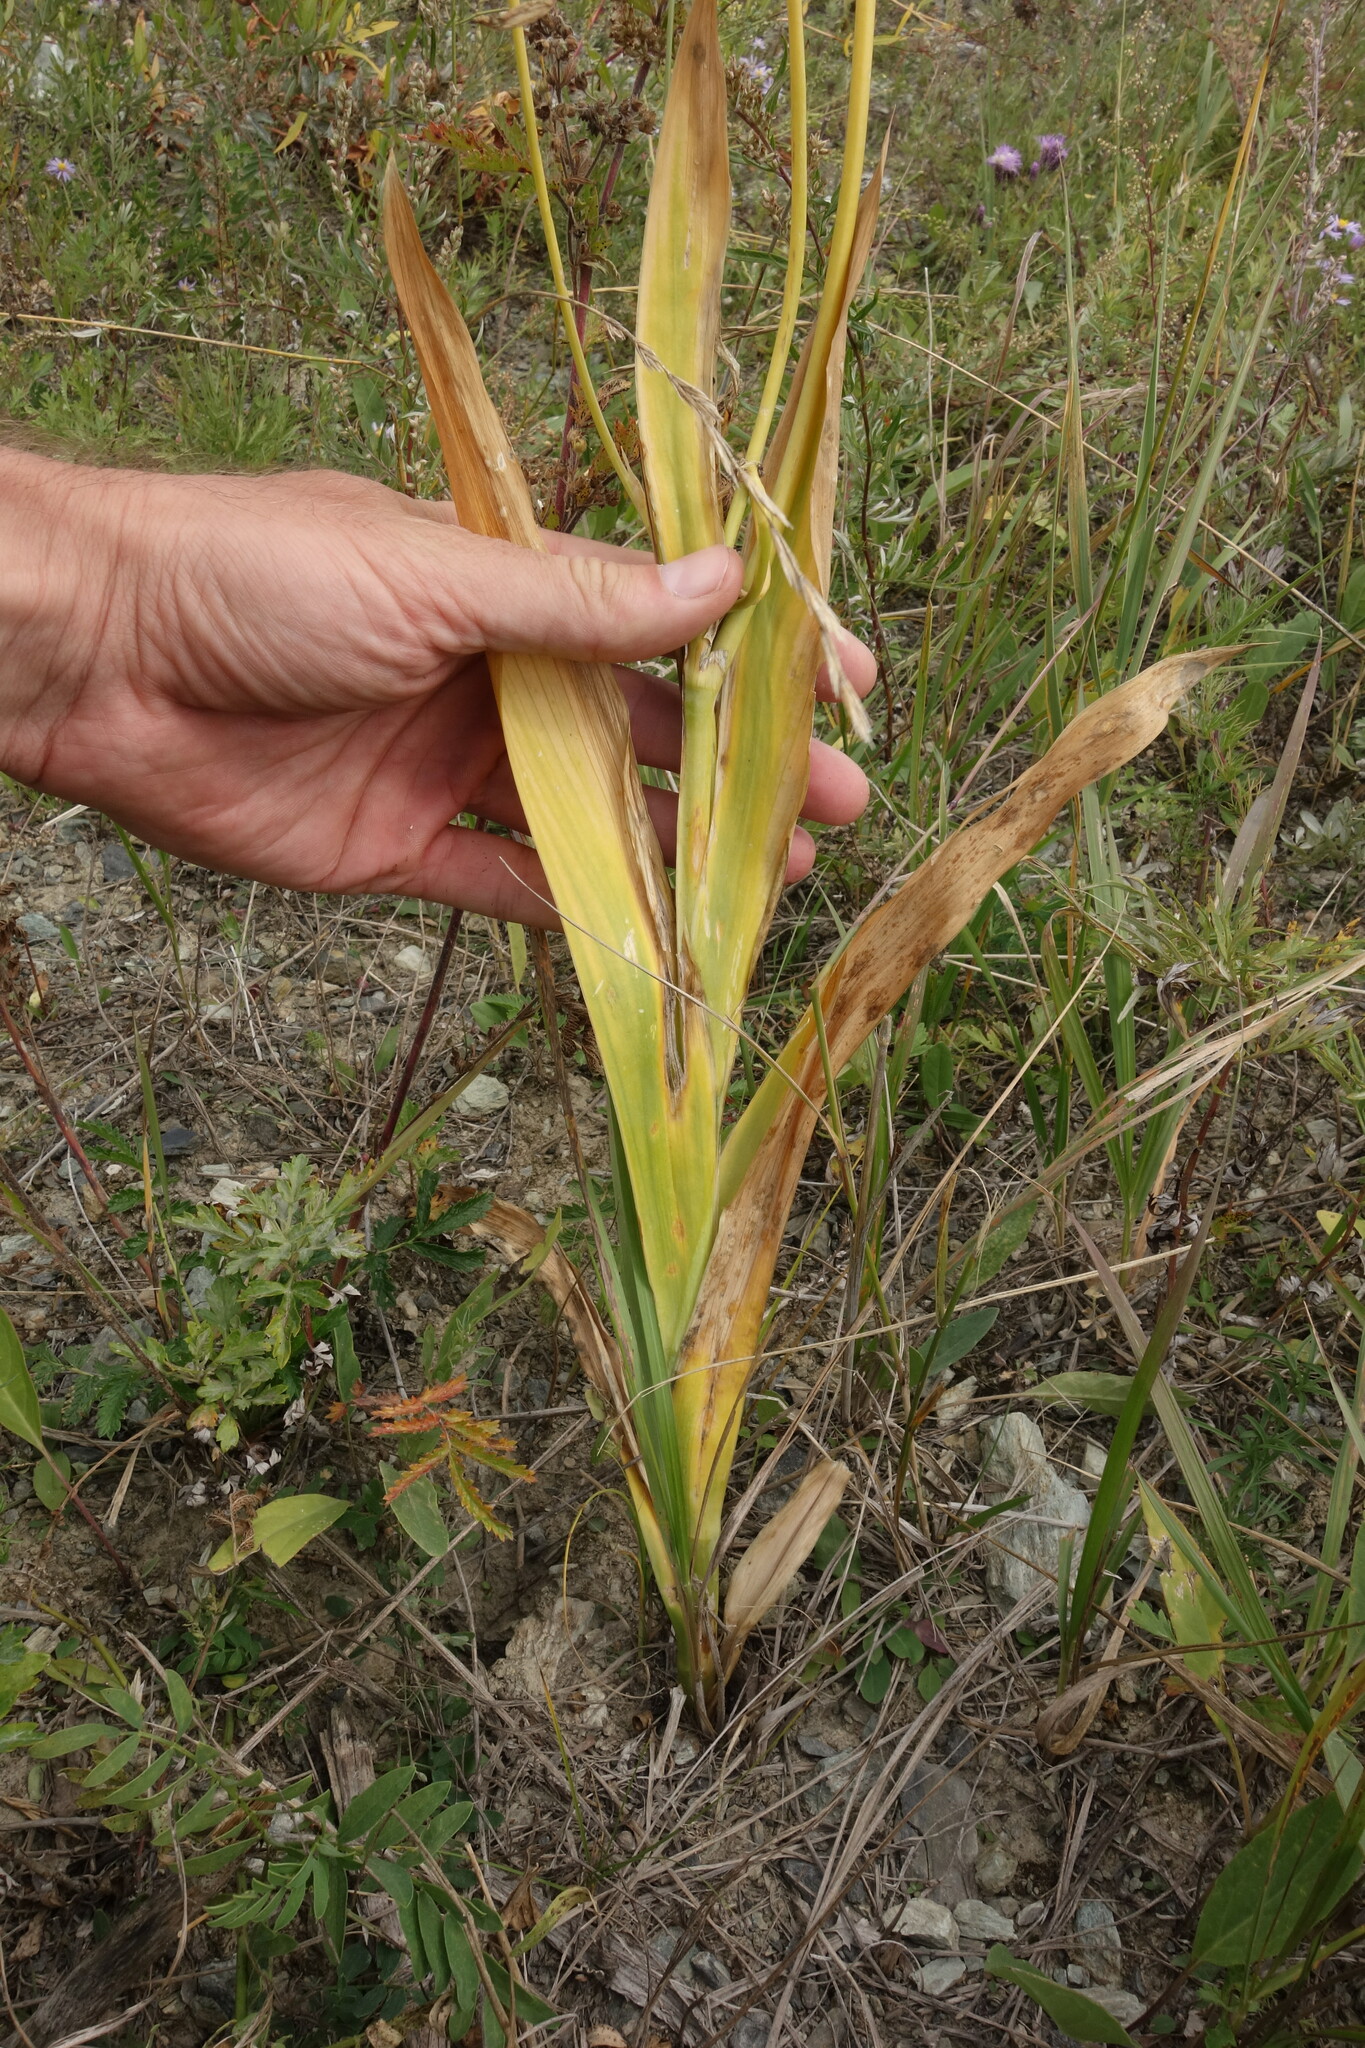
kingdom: Plantae
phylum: Tracheophyta
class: Liliopsida
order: Asparagales
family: Iridaceae
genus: Iris
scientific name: Iris dichotoma
